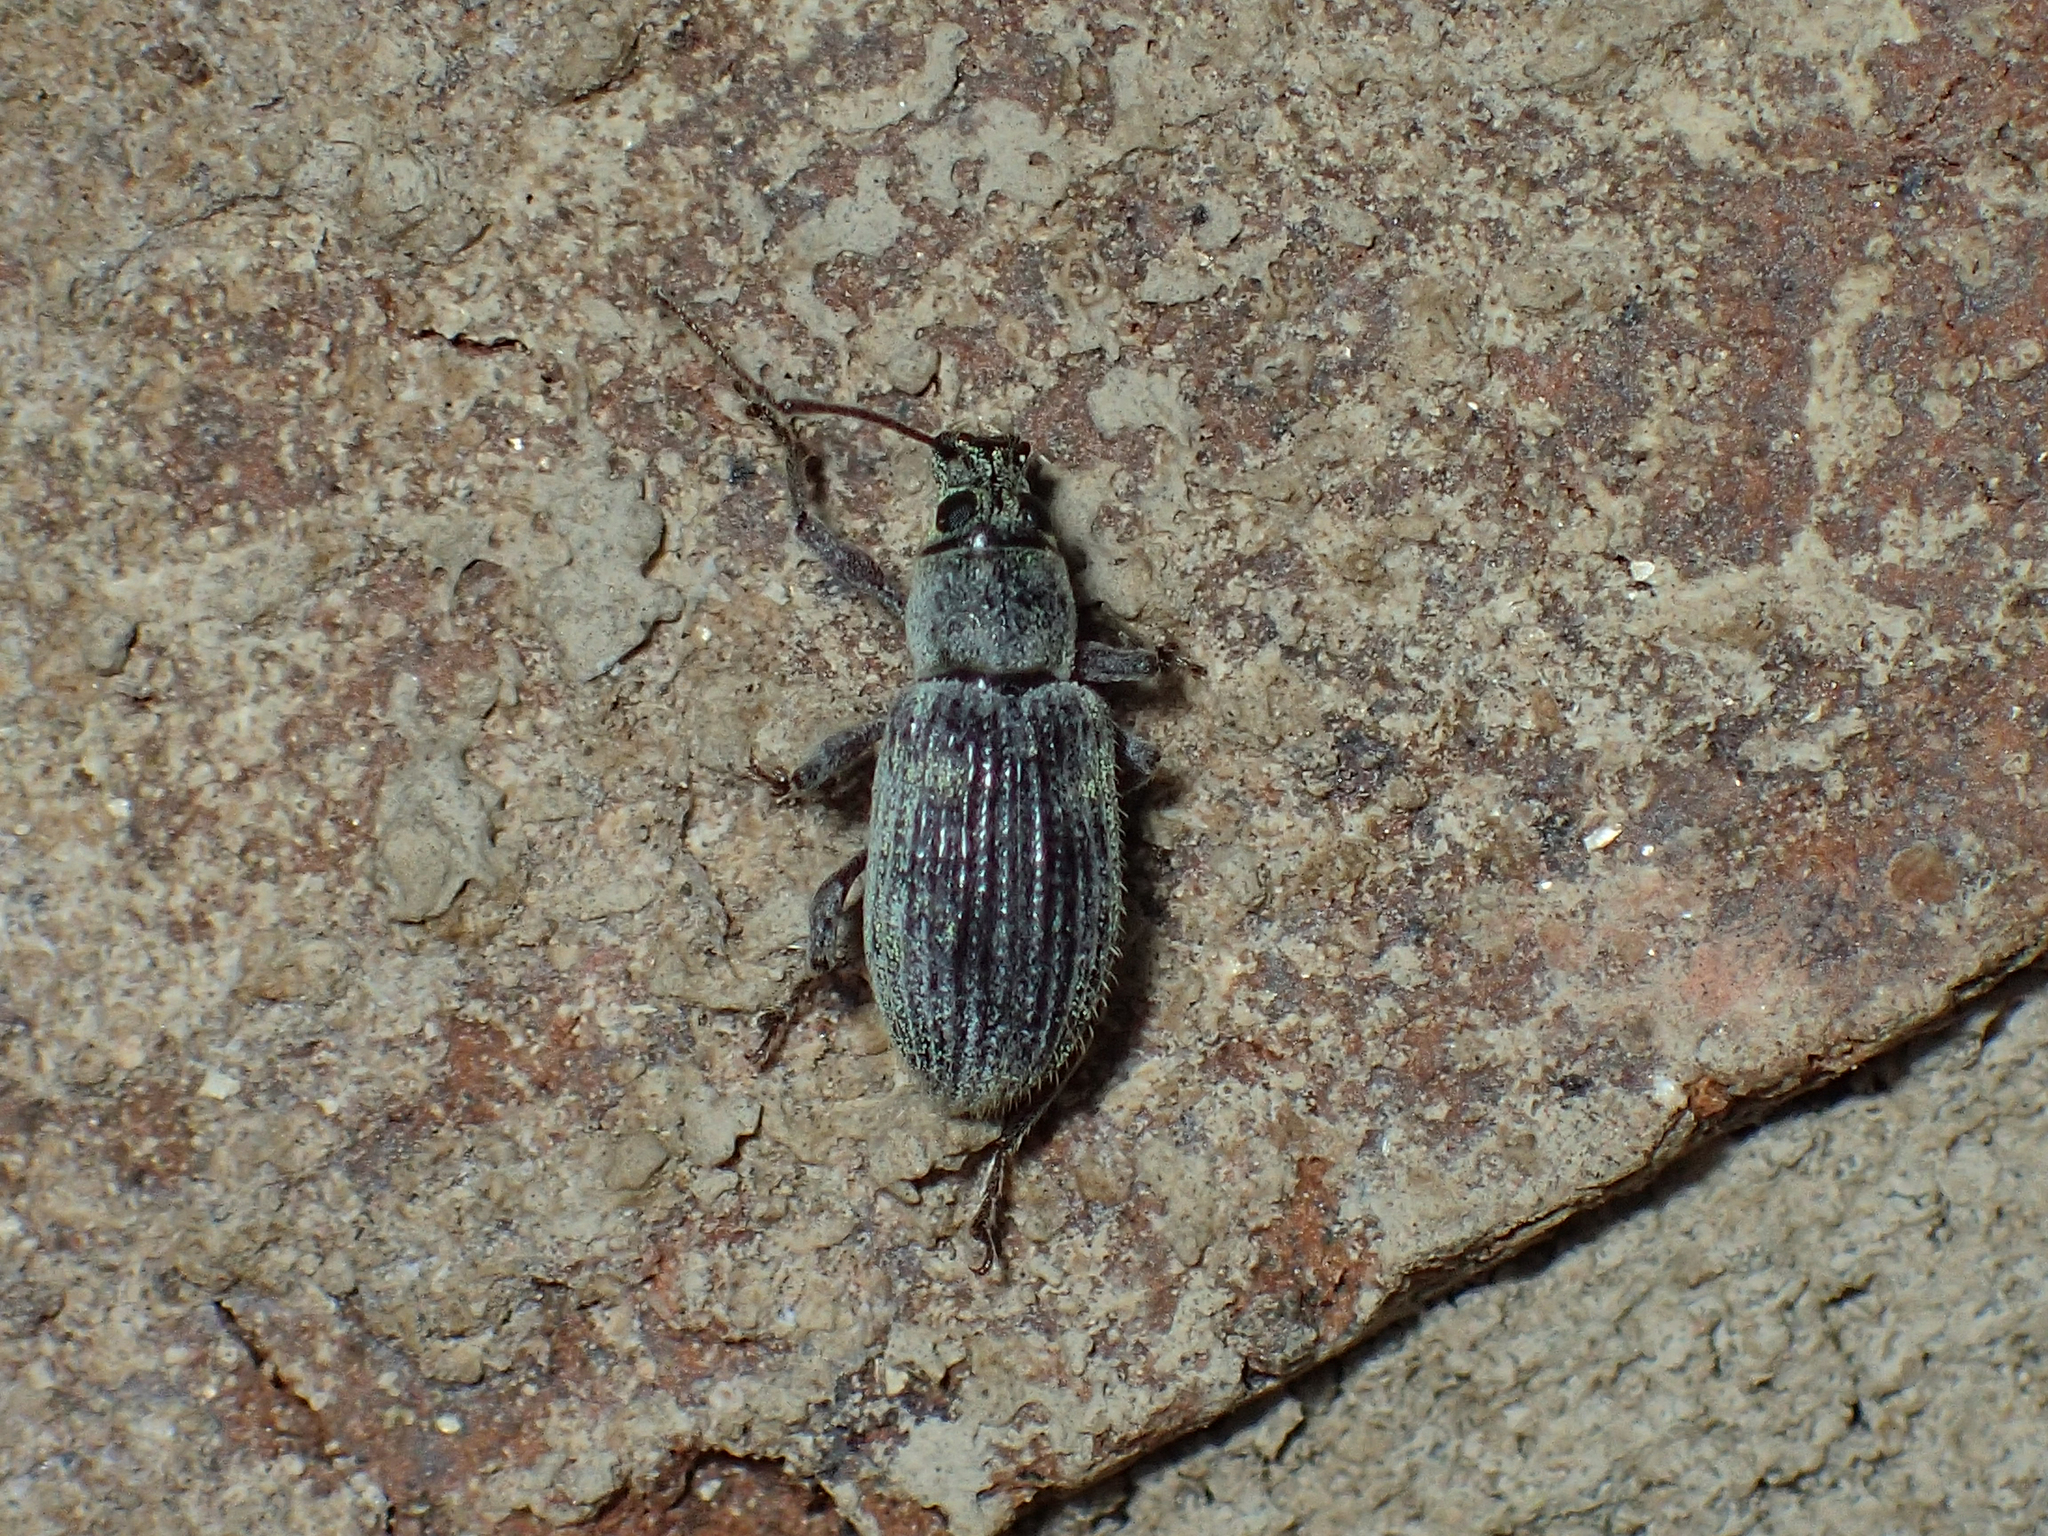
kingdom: Animalia
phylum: Arthropoda
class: Insecta
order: Coleoptera
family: Curculionidae
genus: Cyrtepistomus
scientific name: Cyrtepistomus castaneus
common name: Weevil
